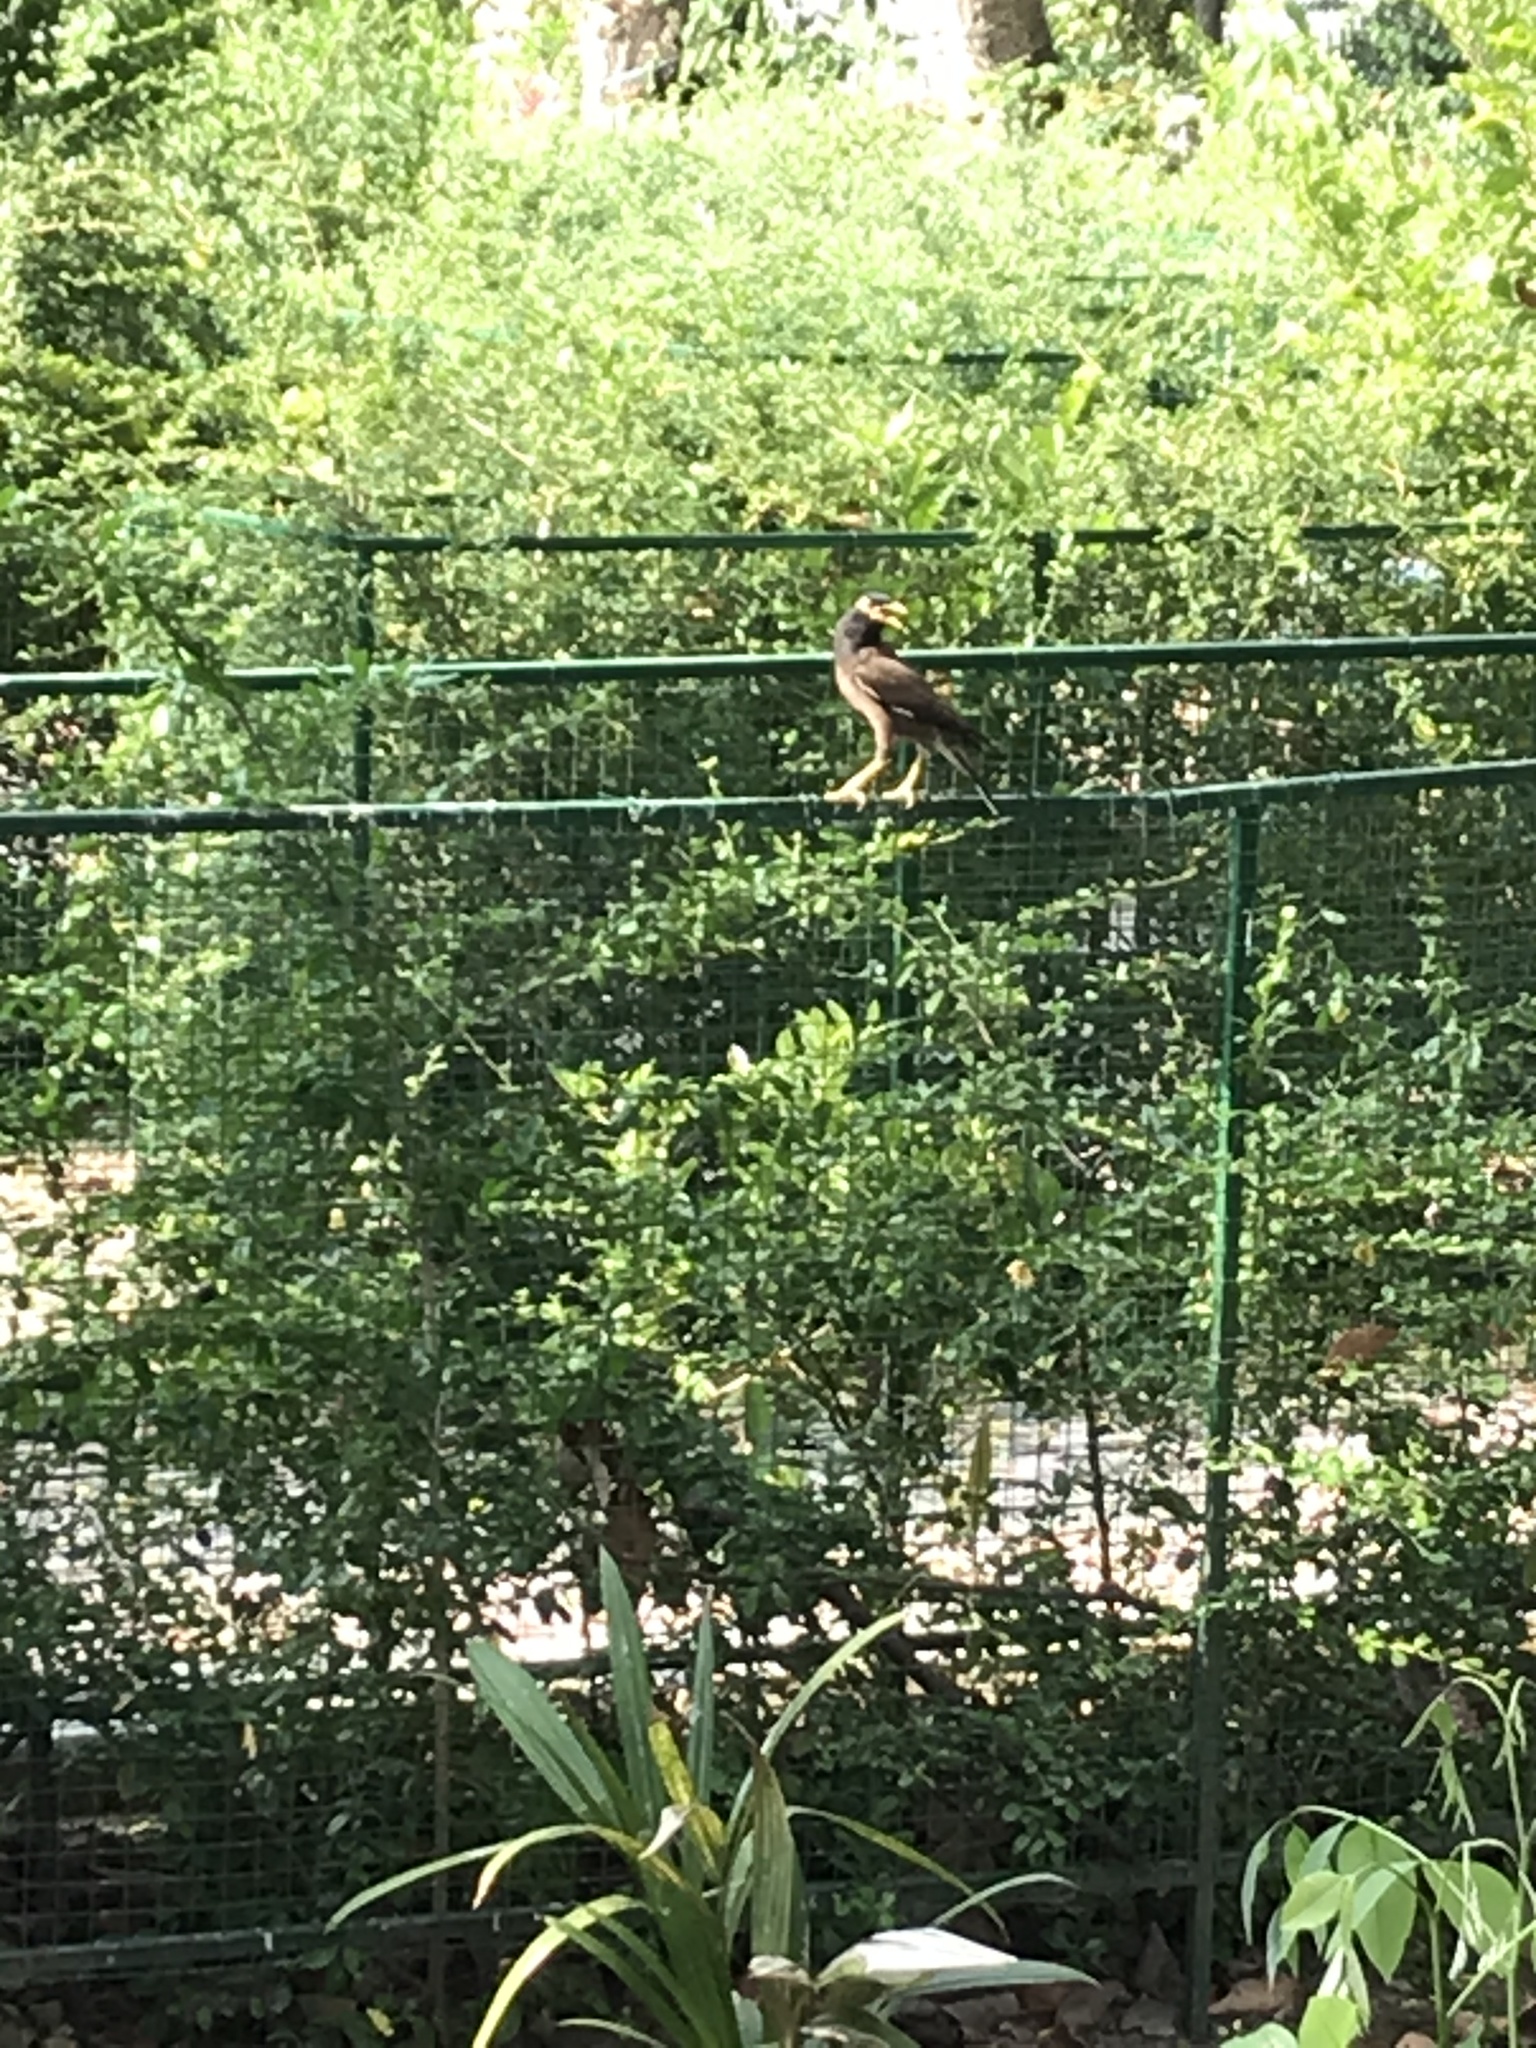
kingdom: Animalia
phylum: Chordata
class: Aves
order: Passeriformes
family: Sturnidae
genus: Acridotheres
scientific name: Acridotheres tristis
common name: Common myna
